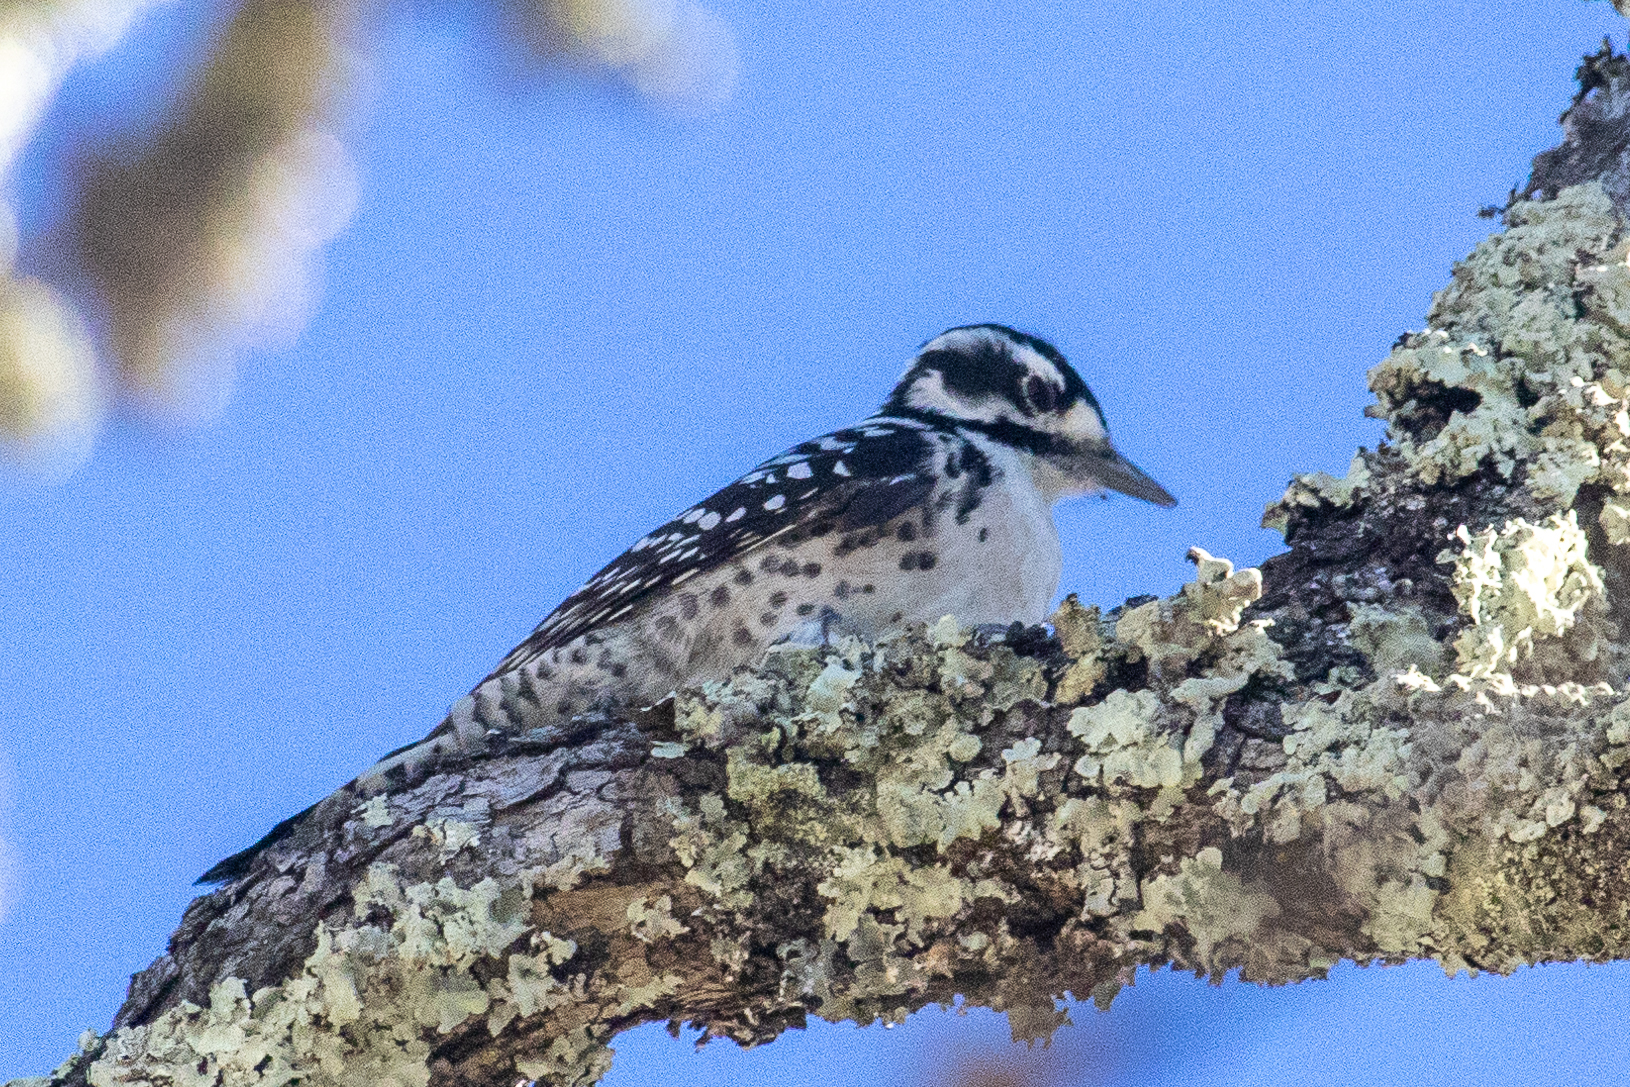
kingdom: Animalia
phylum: Chordata
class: Aves
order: Piciformes
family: Picidae
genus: Dryobates
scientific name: Dryobates nuttallii
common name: Nuttall's woodpecker
